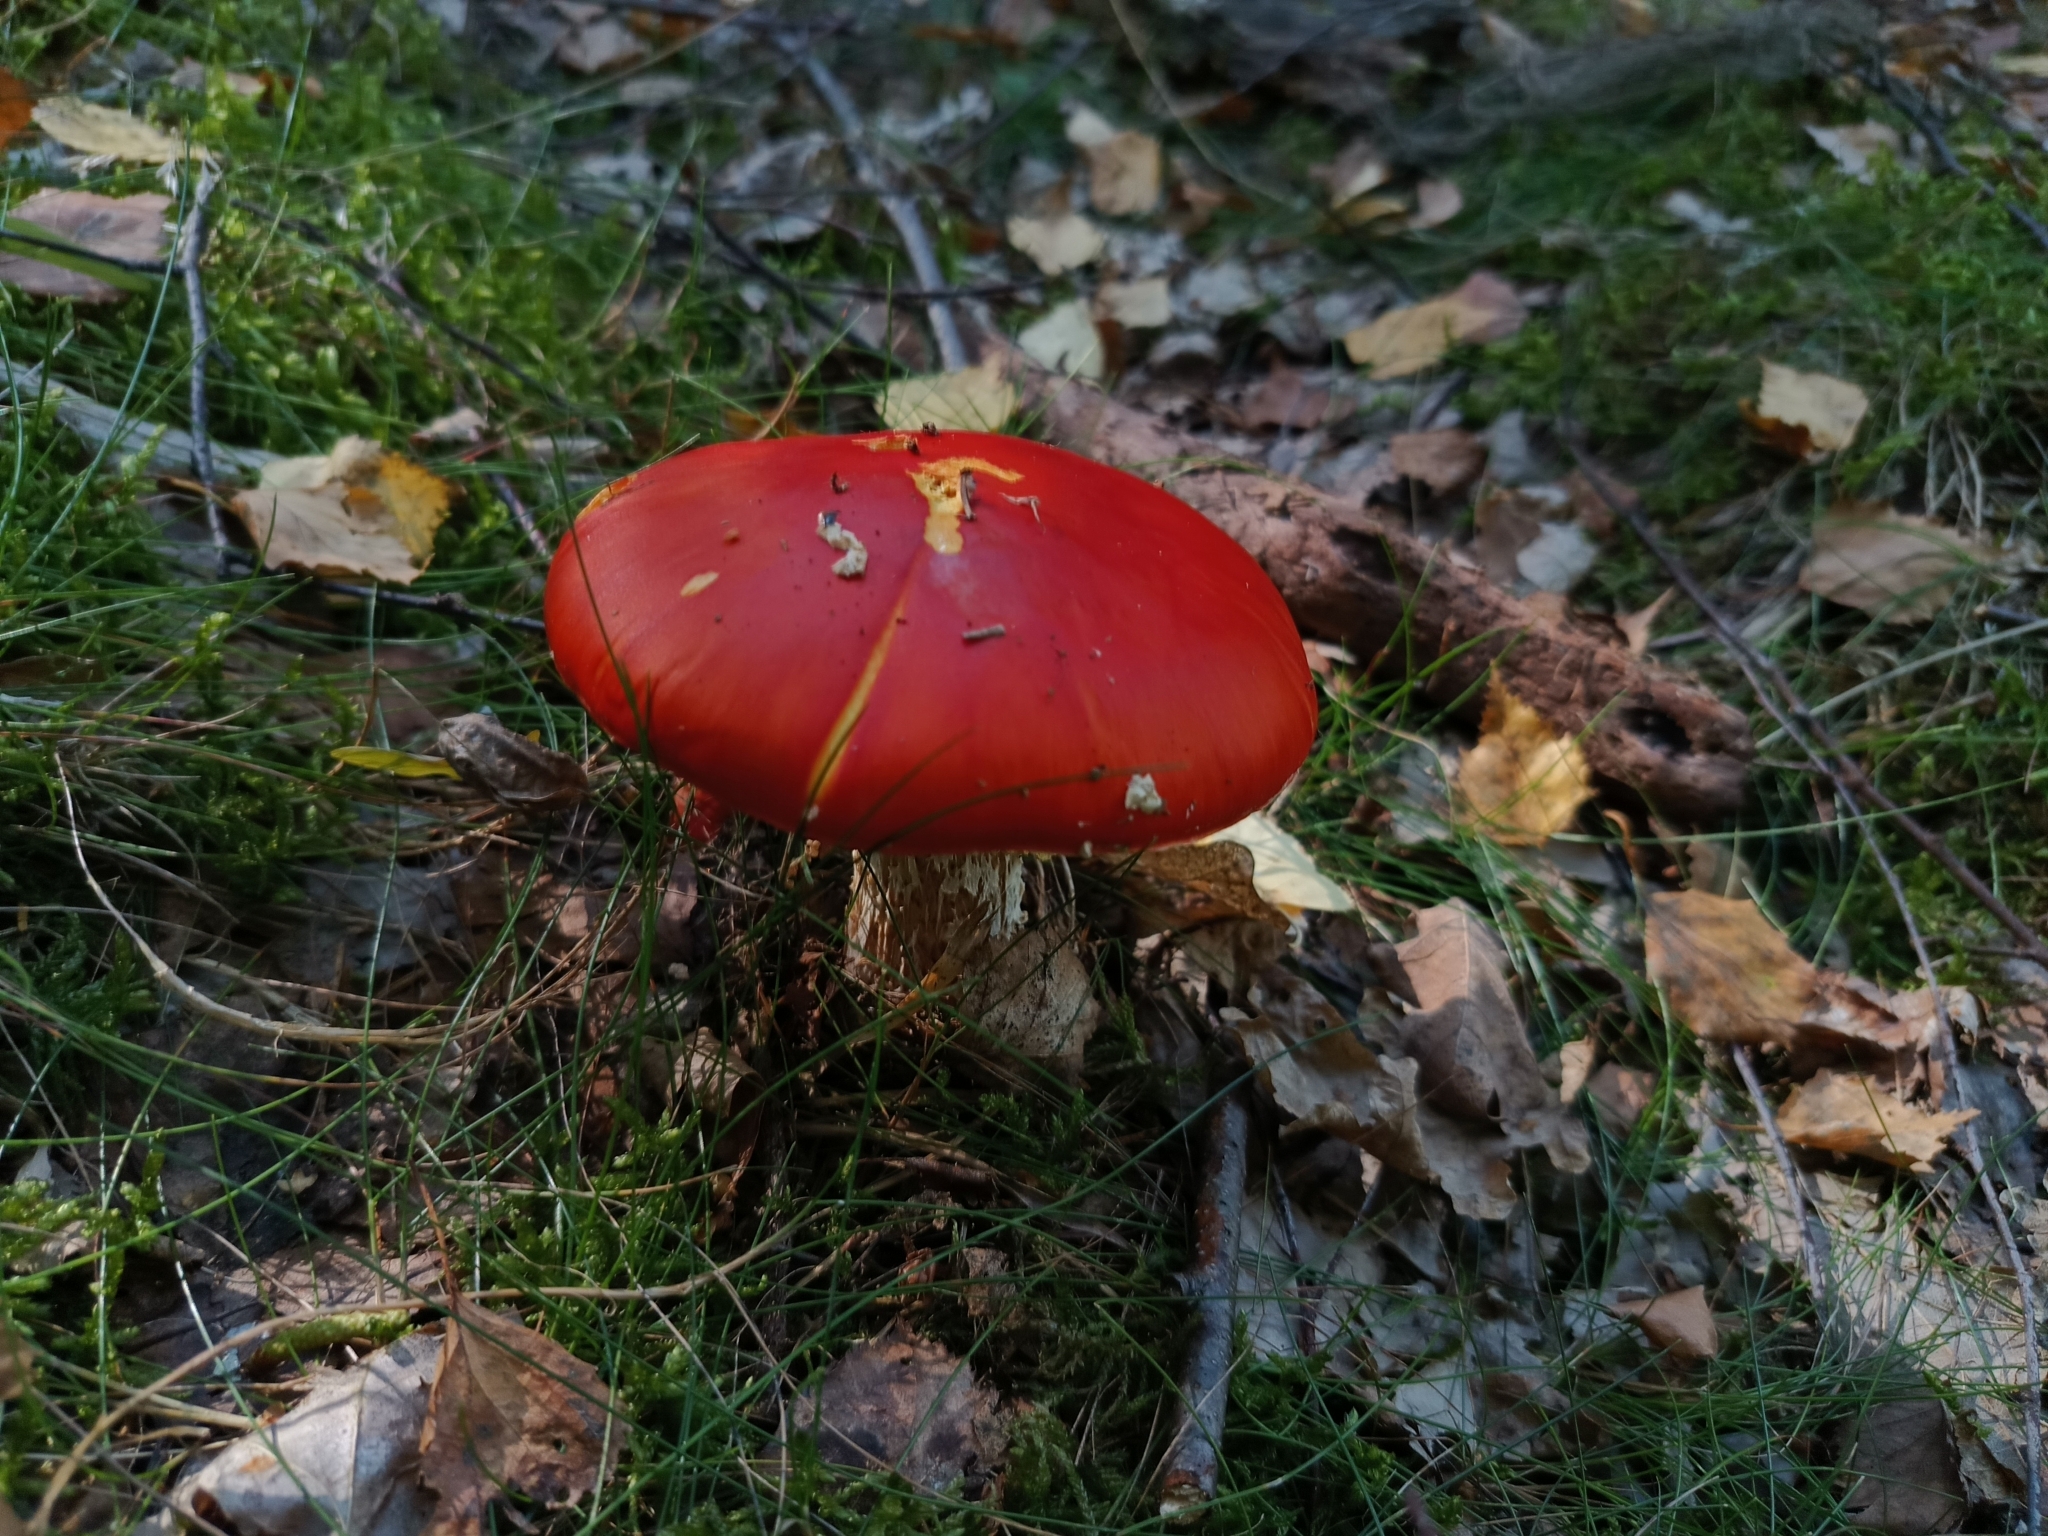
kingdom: Fungi
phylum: Basidiomycota
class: Agaricomycetes
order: Agaricales
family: Amanitaceae
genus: Amanita
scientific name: Amanita muscaria
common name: Fly agaric
